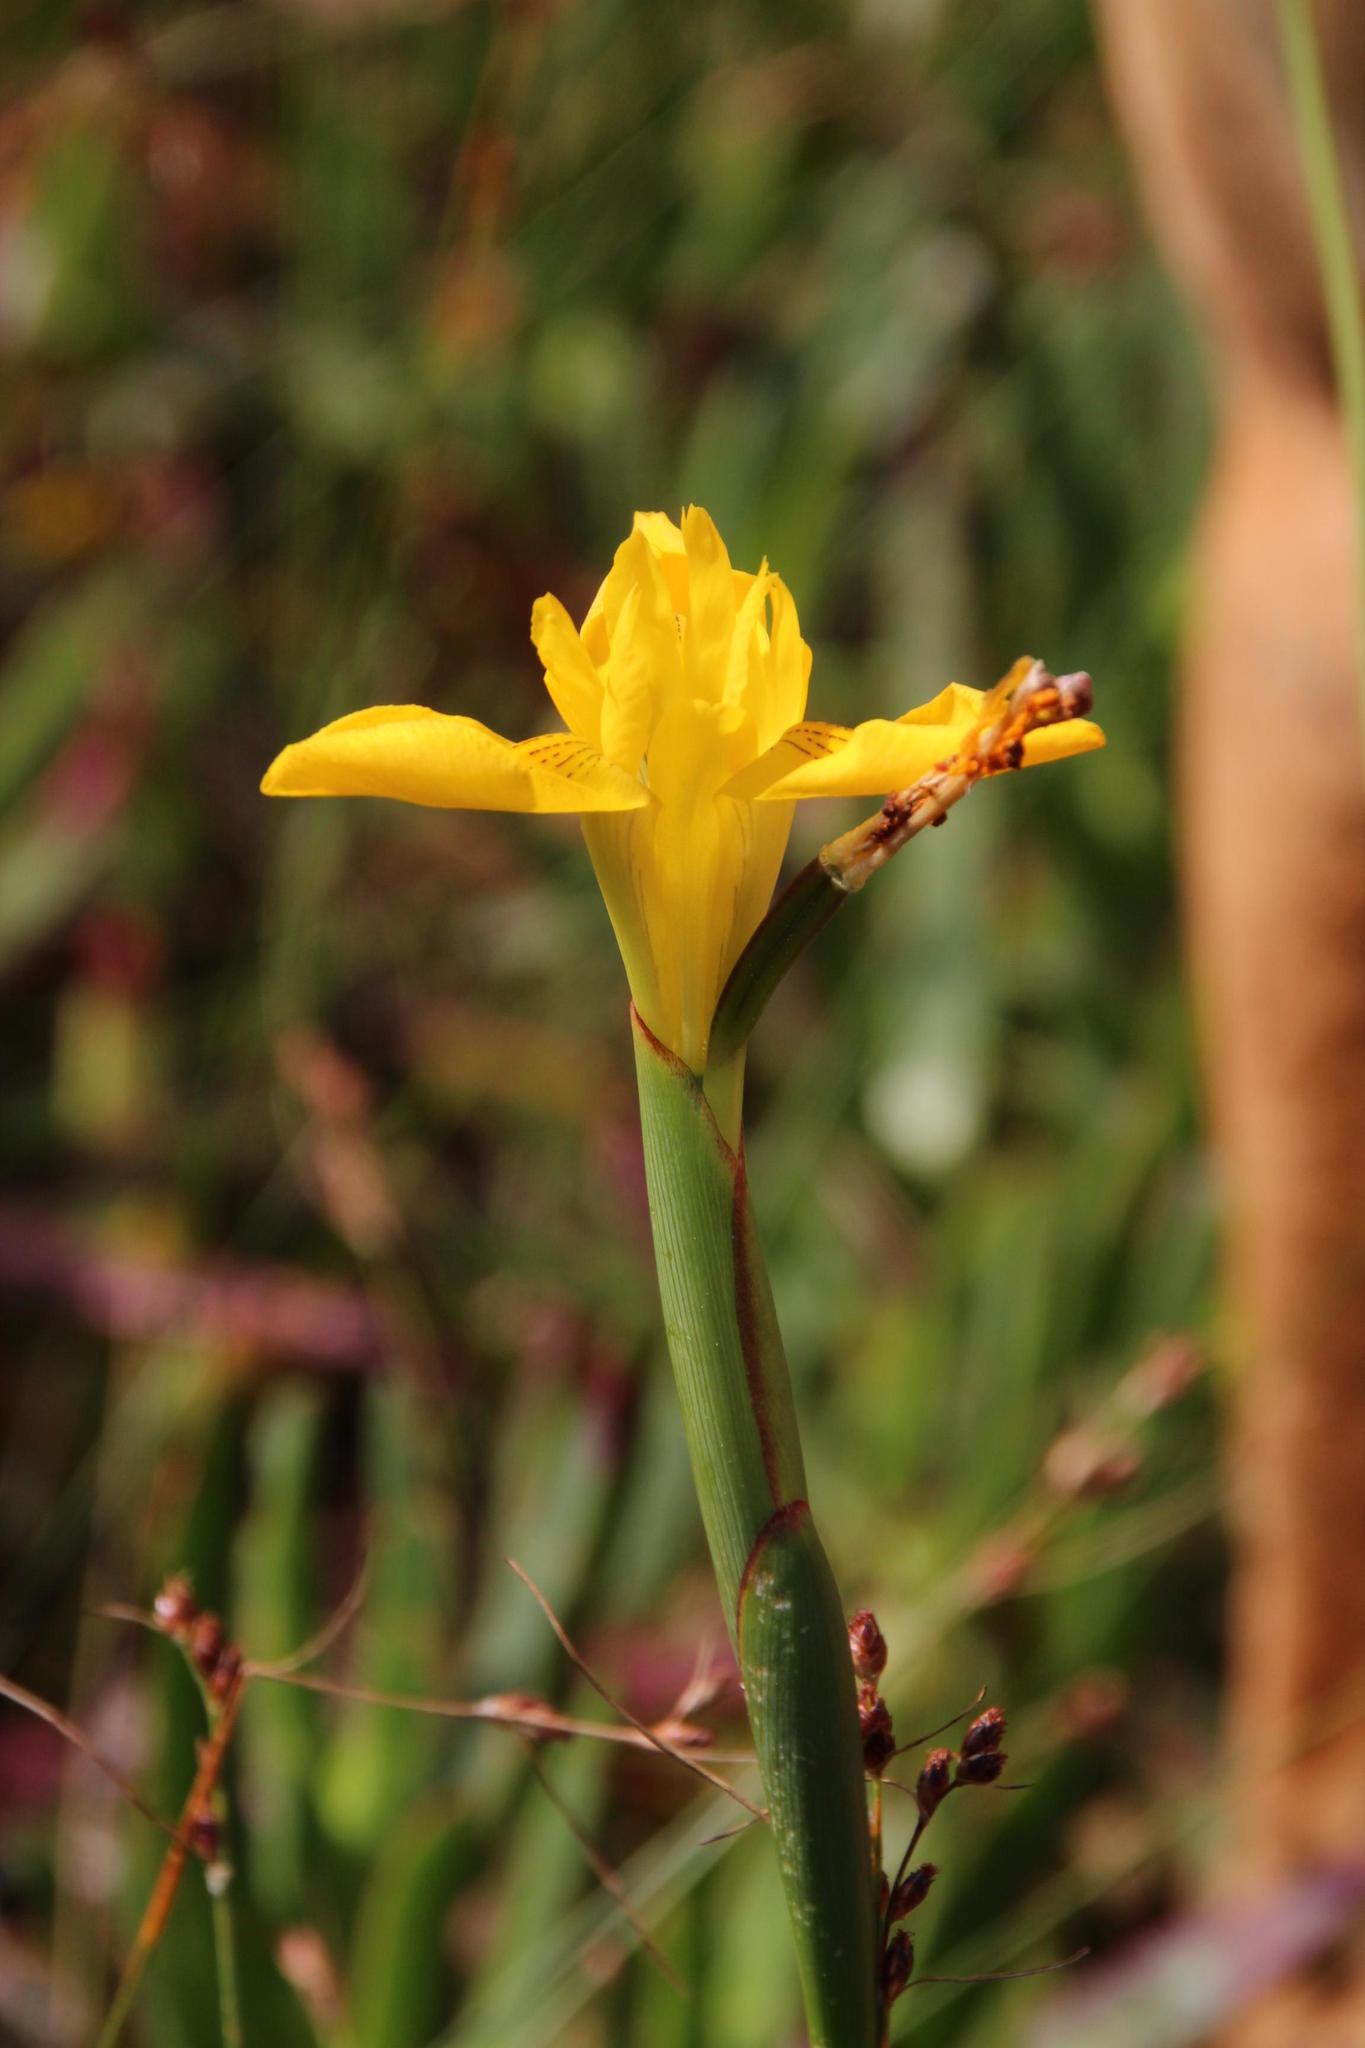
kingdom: Plantae
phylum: Tracheophyta
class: Liliopsida
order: Asparagales
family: Iridaceae
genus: Moraea
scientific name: Moraea neglecta
